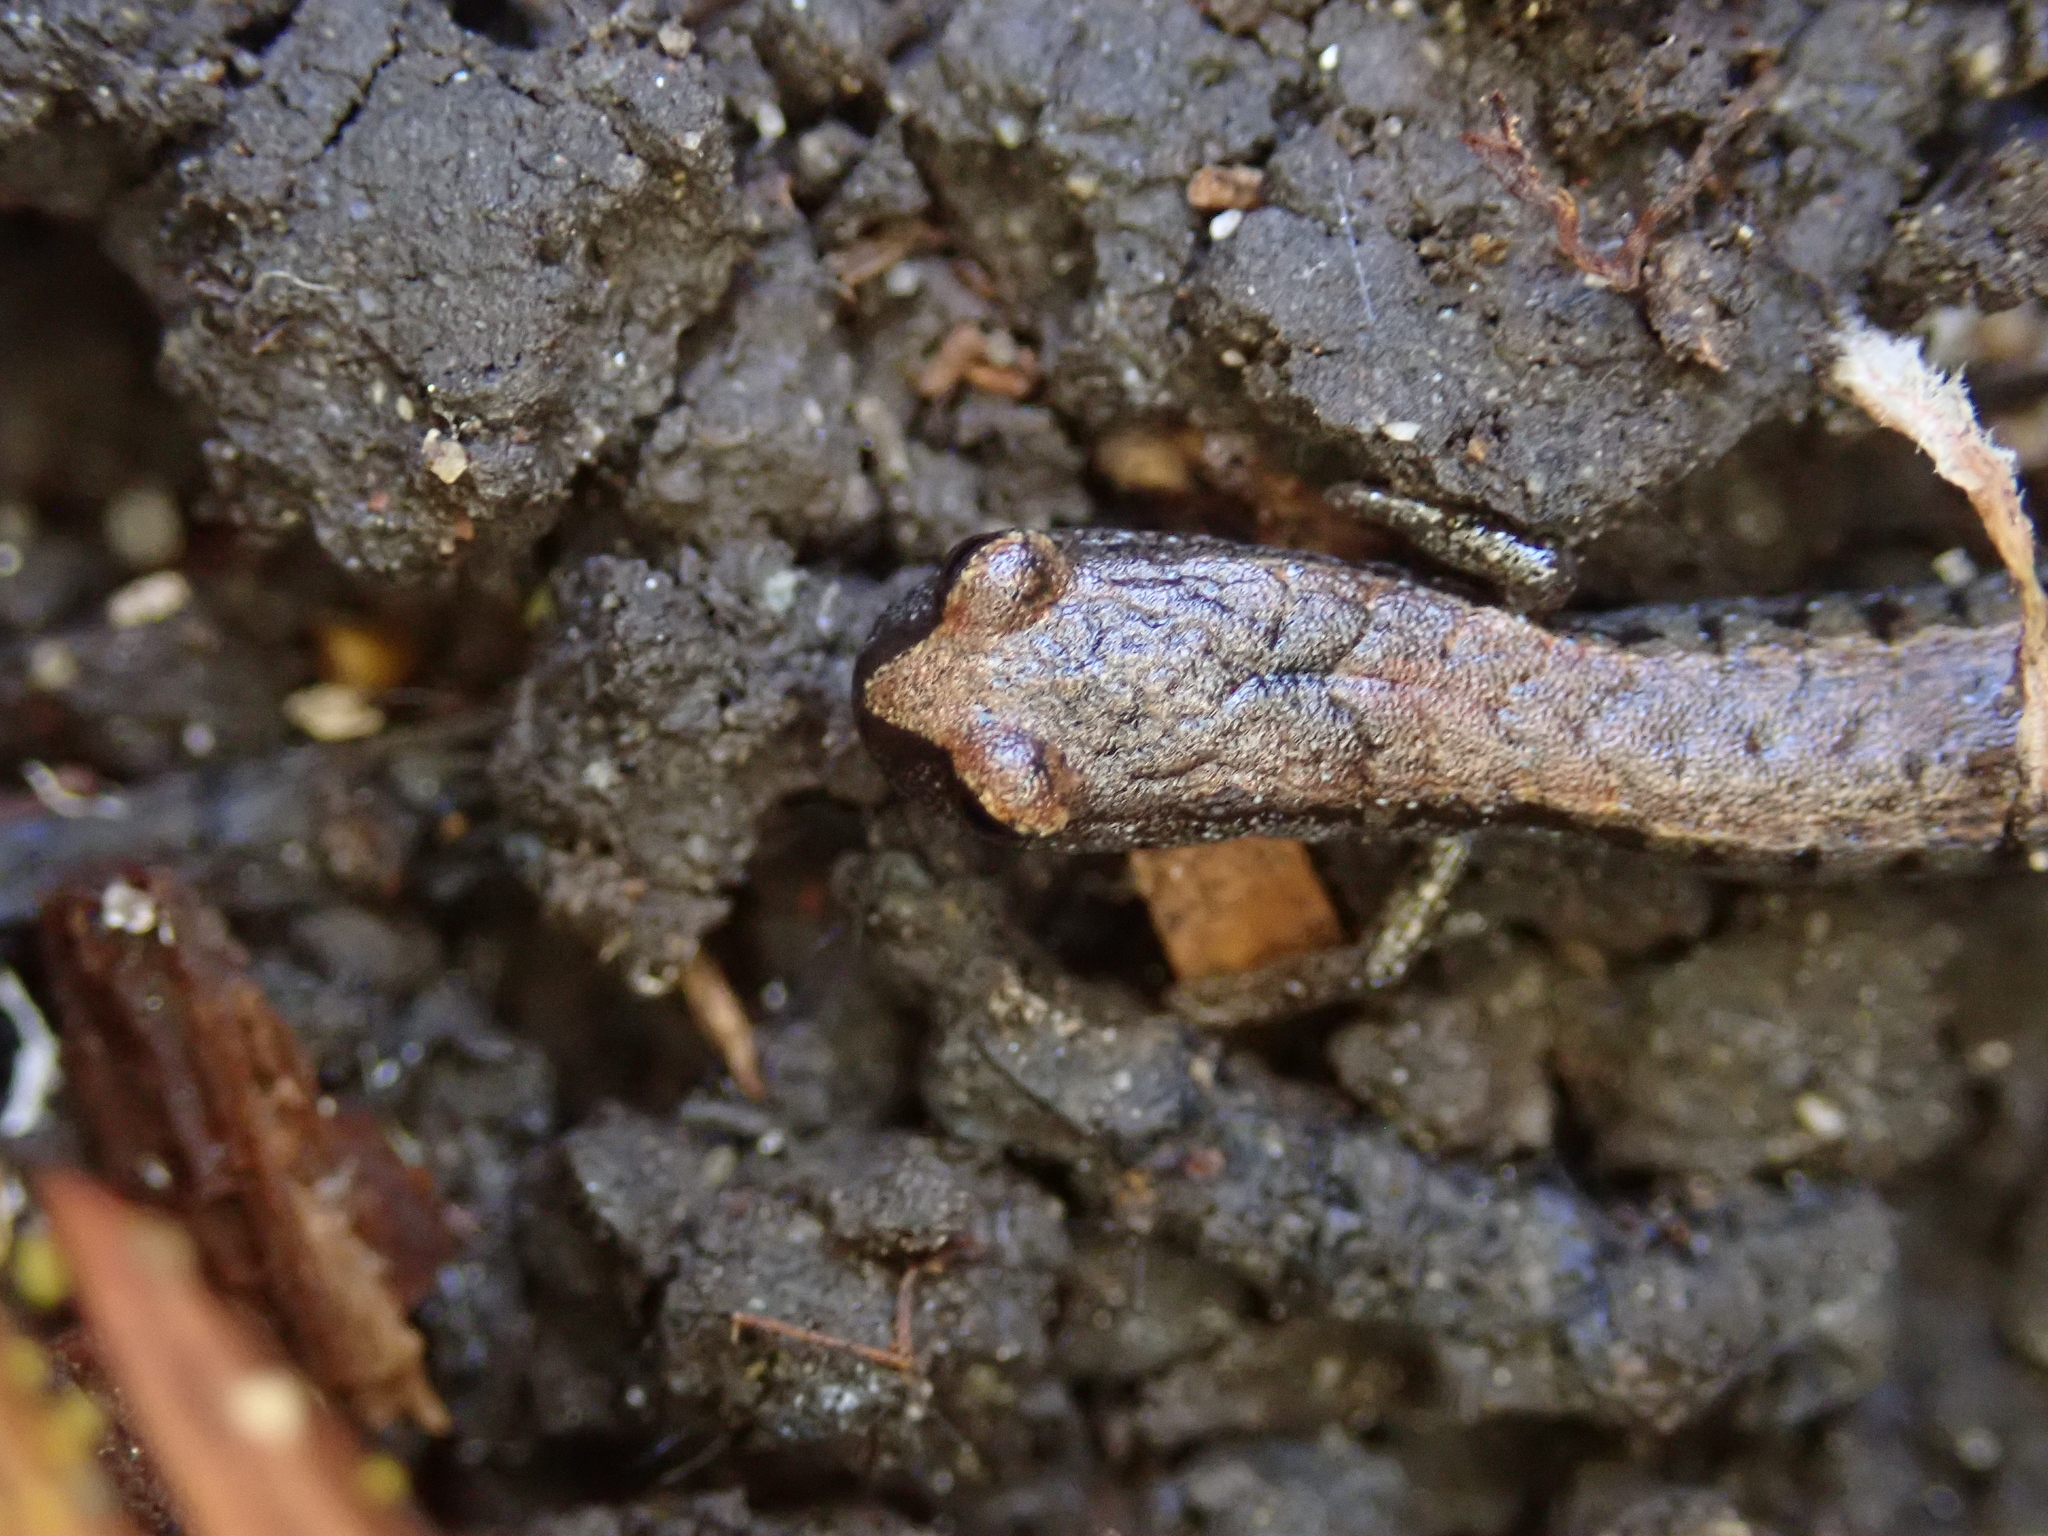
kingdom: Animalia
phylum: Chordata
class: Amphibia
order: Caudata
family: Plethodontidae
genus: Batrachoseps
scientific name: Batrachoseps attenuatus
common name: California slender salamander
